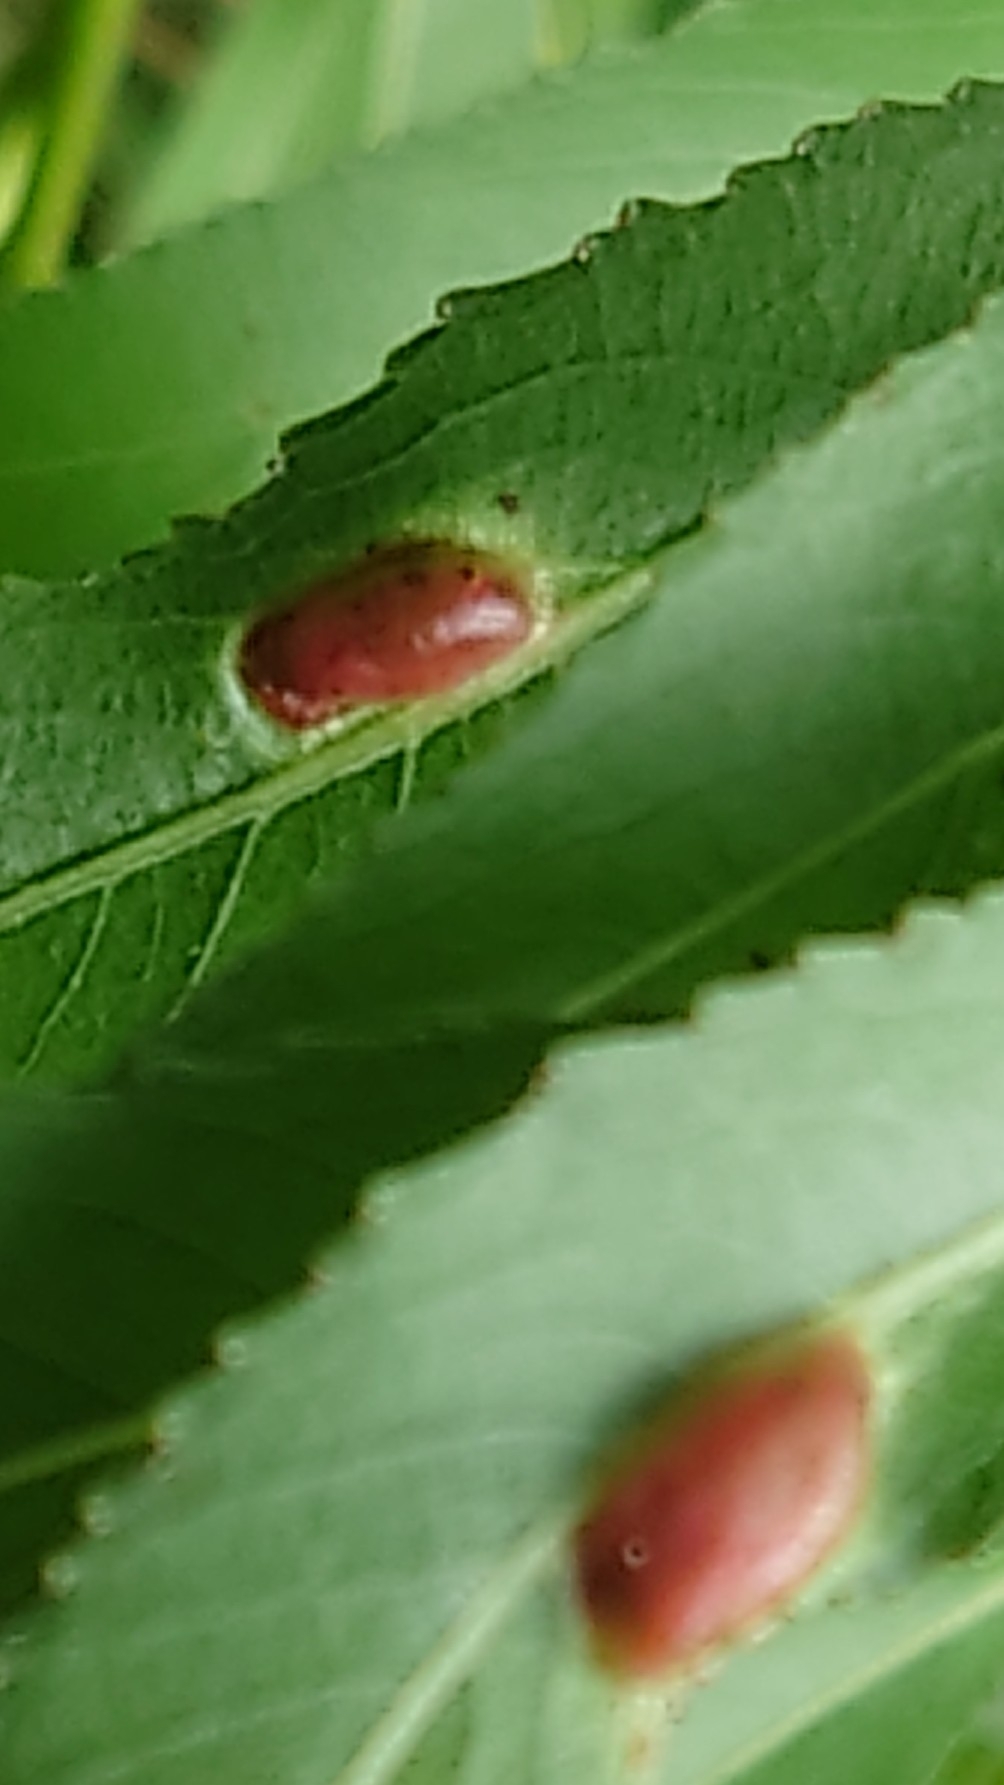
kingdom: Animalia
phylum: Arthropoda
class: Insecta
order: Hymenoptera
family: Tenthredinidae
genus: Pontania
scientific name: Pontania proxima
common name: Common sawfly
